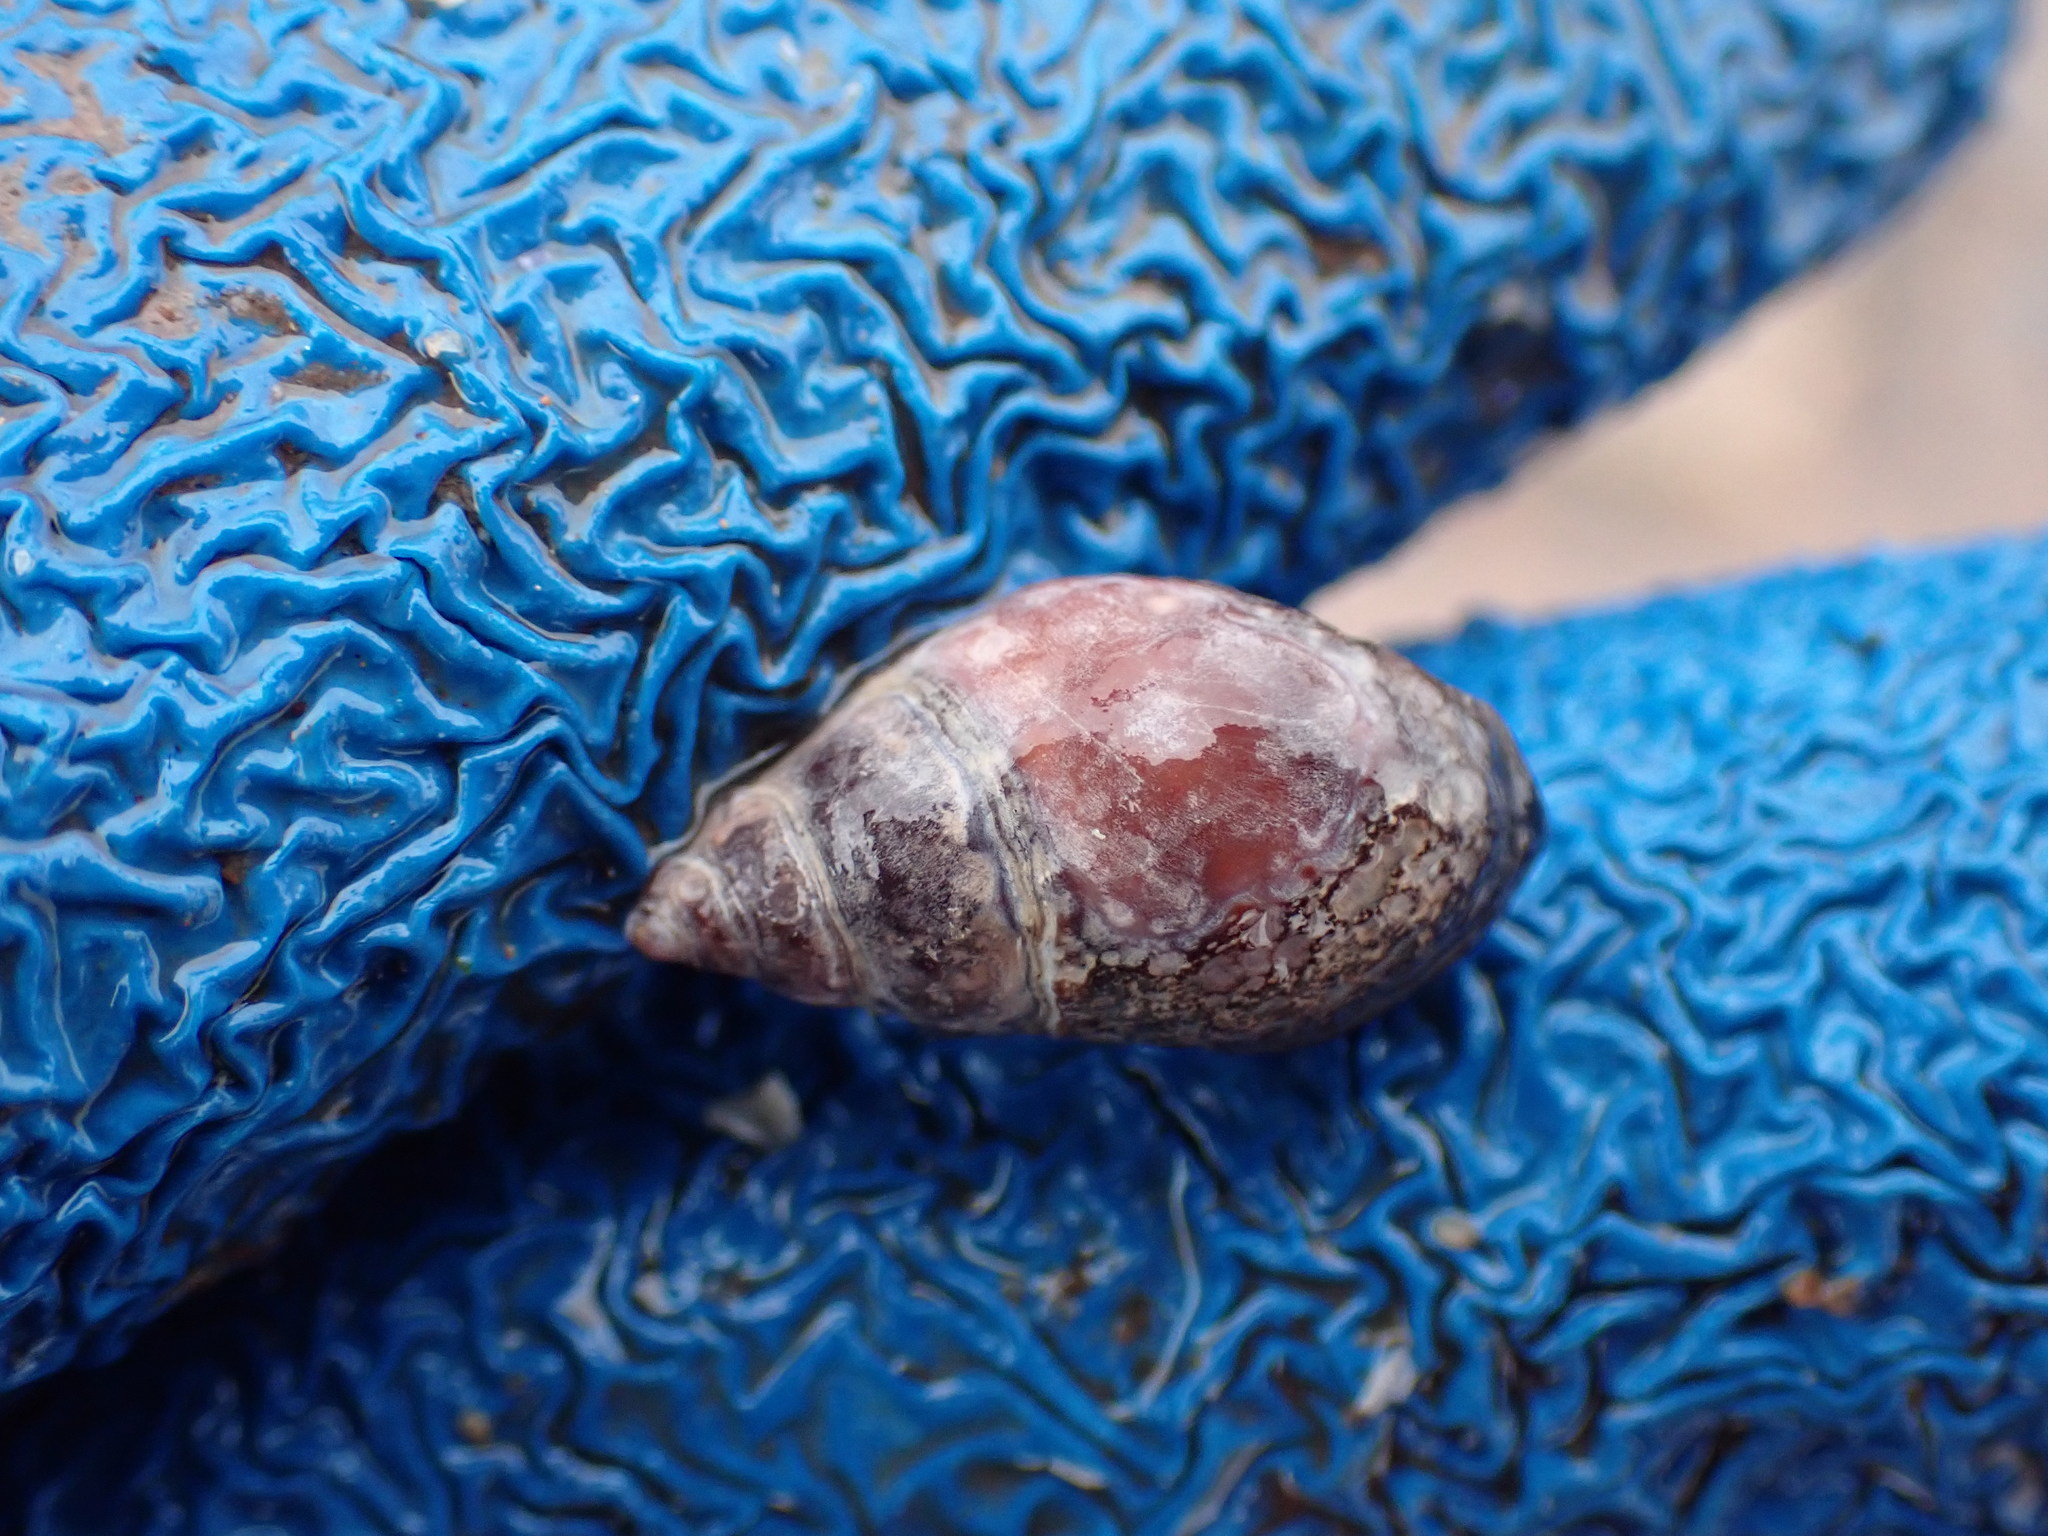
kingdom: Animalia
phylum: Mollusca
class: Gastropoda
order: Neogastropoda
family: Nassariidae
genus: Ilyanassa
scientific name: Ilyanassa obsoleta
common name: Eastern mudsnail
